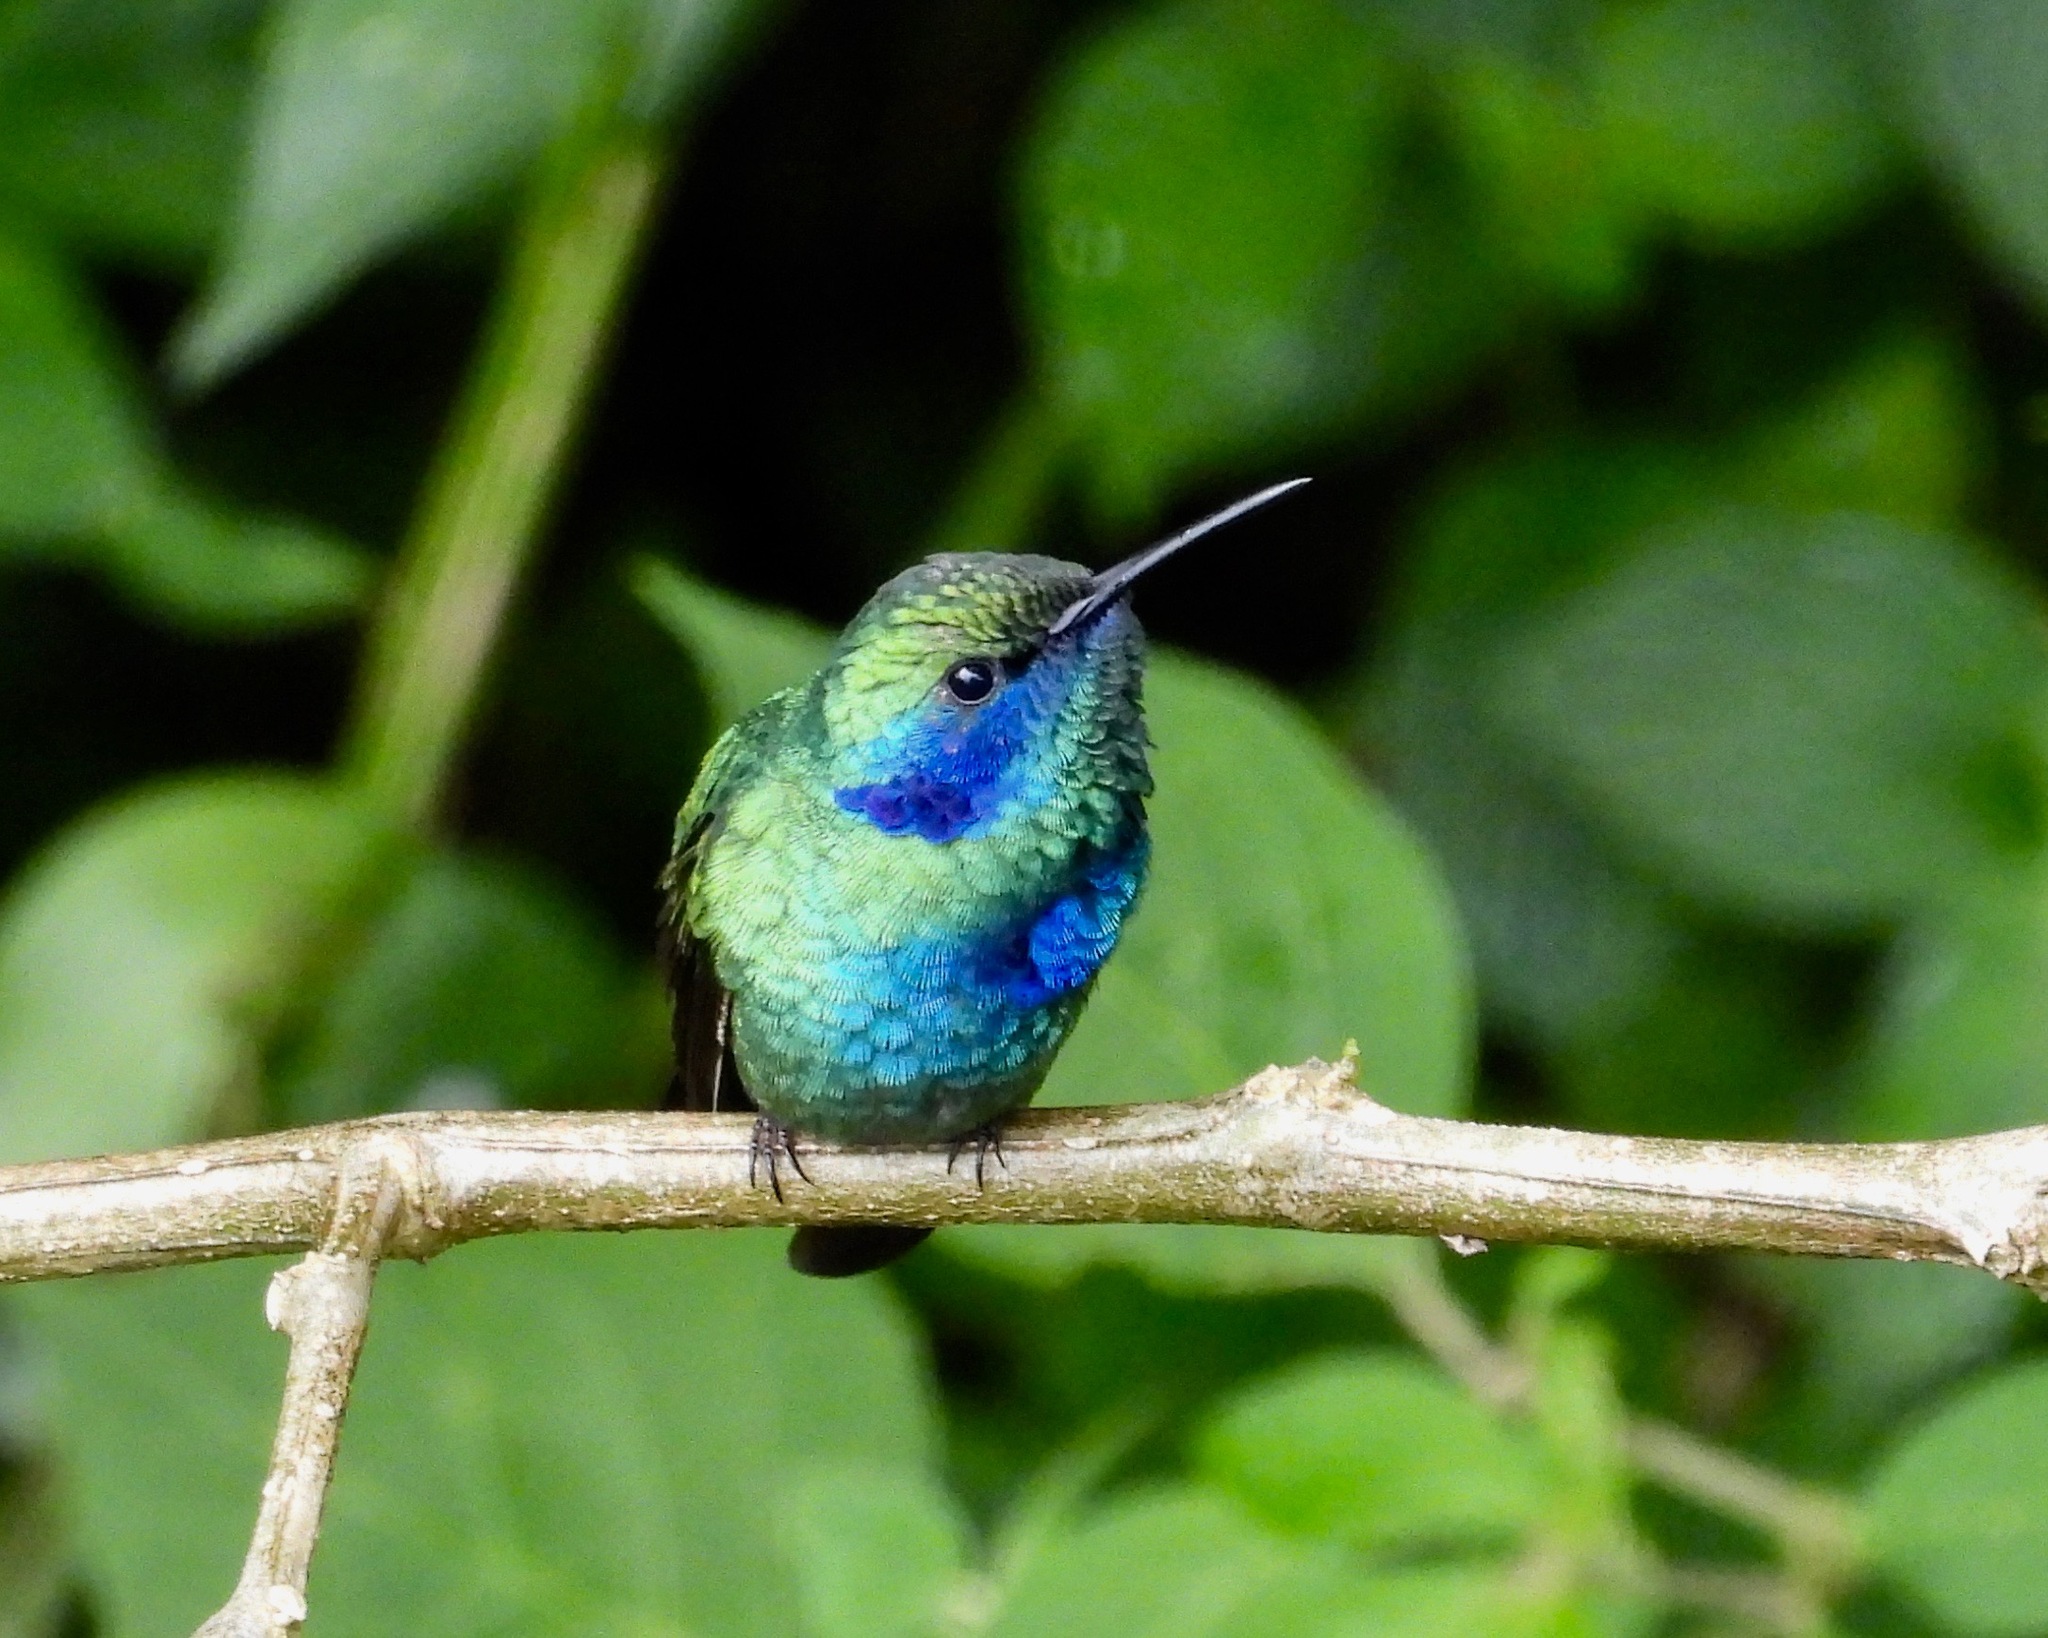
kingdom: Animalia
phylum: Chordata
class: Aves
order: Apodiformes
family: Trochilidae
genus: Colibri
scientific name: Colibri thalassinus
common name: Green violetear
